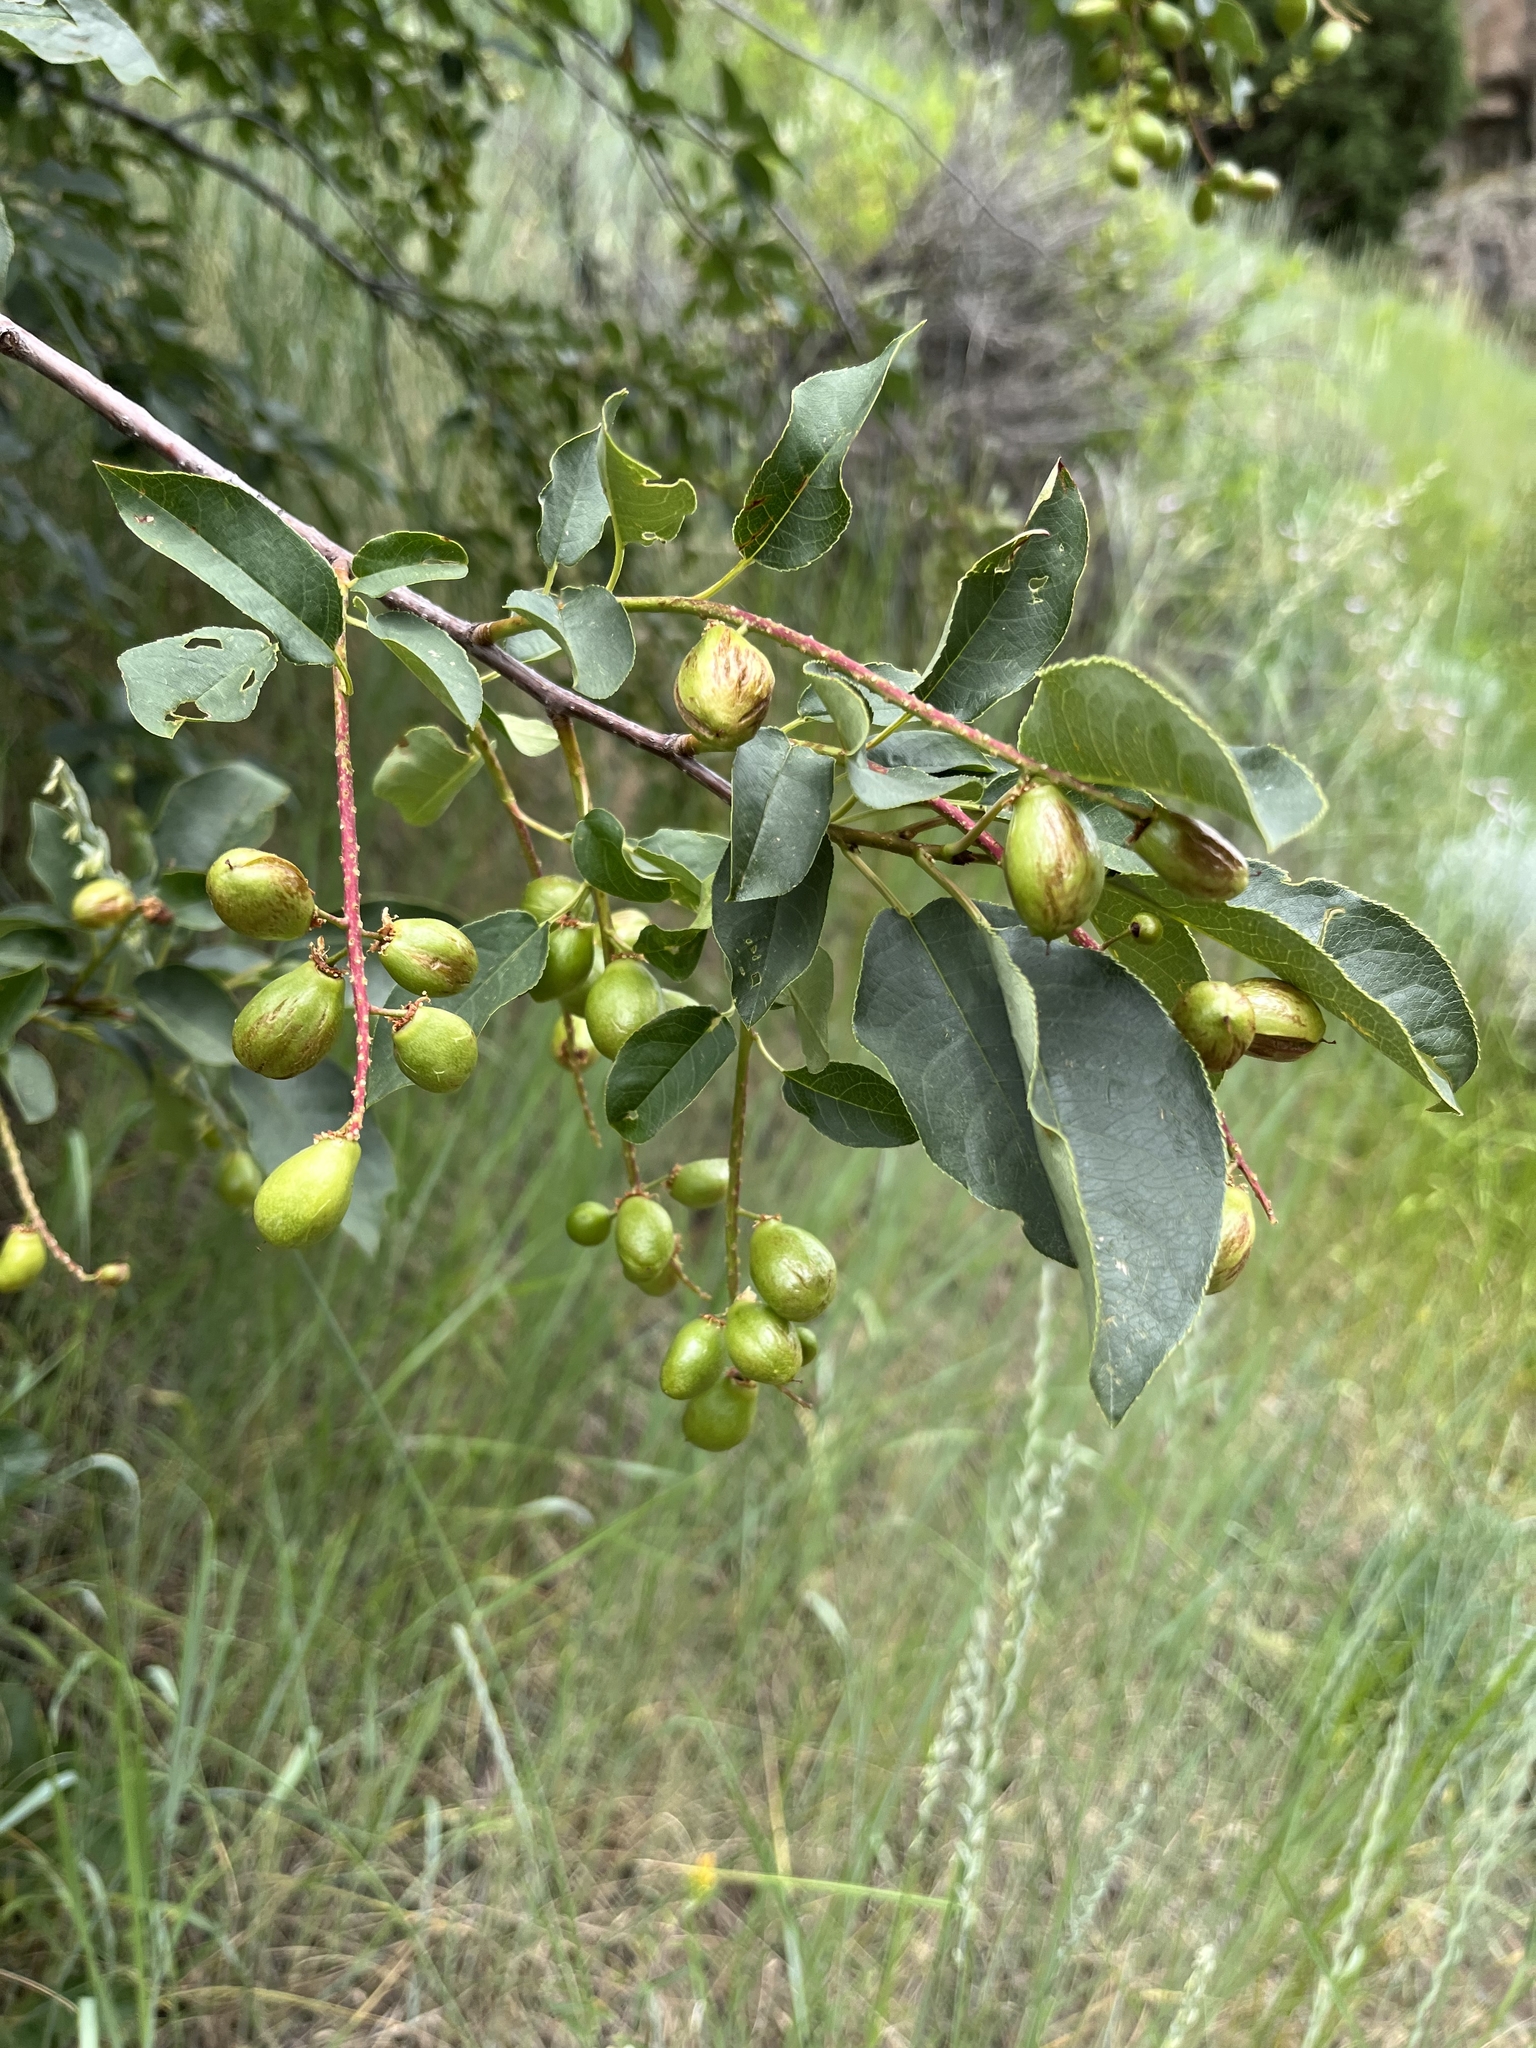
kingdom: Plantae
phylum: Tracheophyta
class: Magnoliopsida
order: Rosales
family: Rosaceae
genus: Prunus
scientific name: Prunus virginiana
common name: Chokecherry
